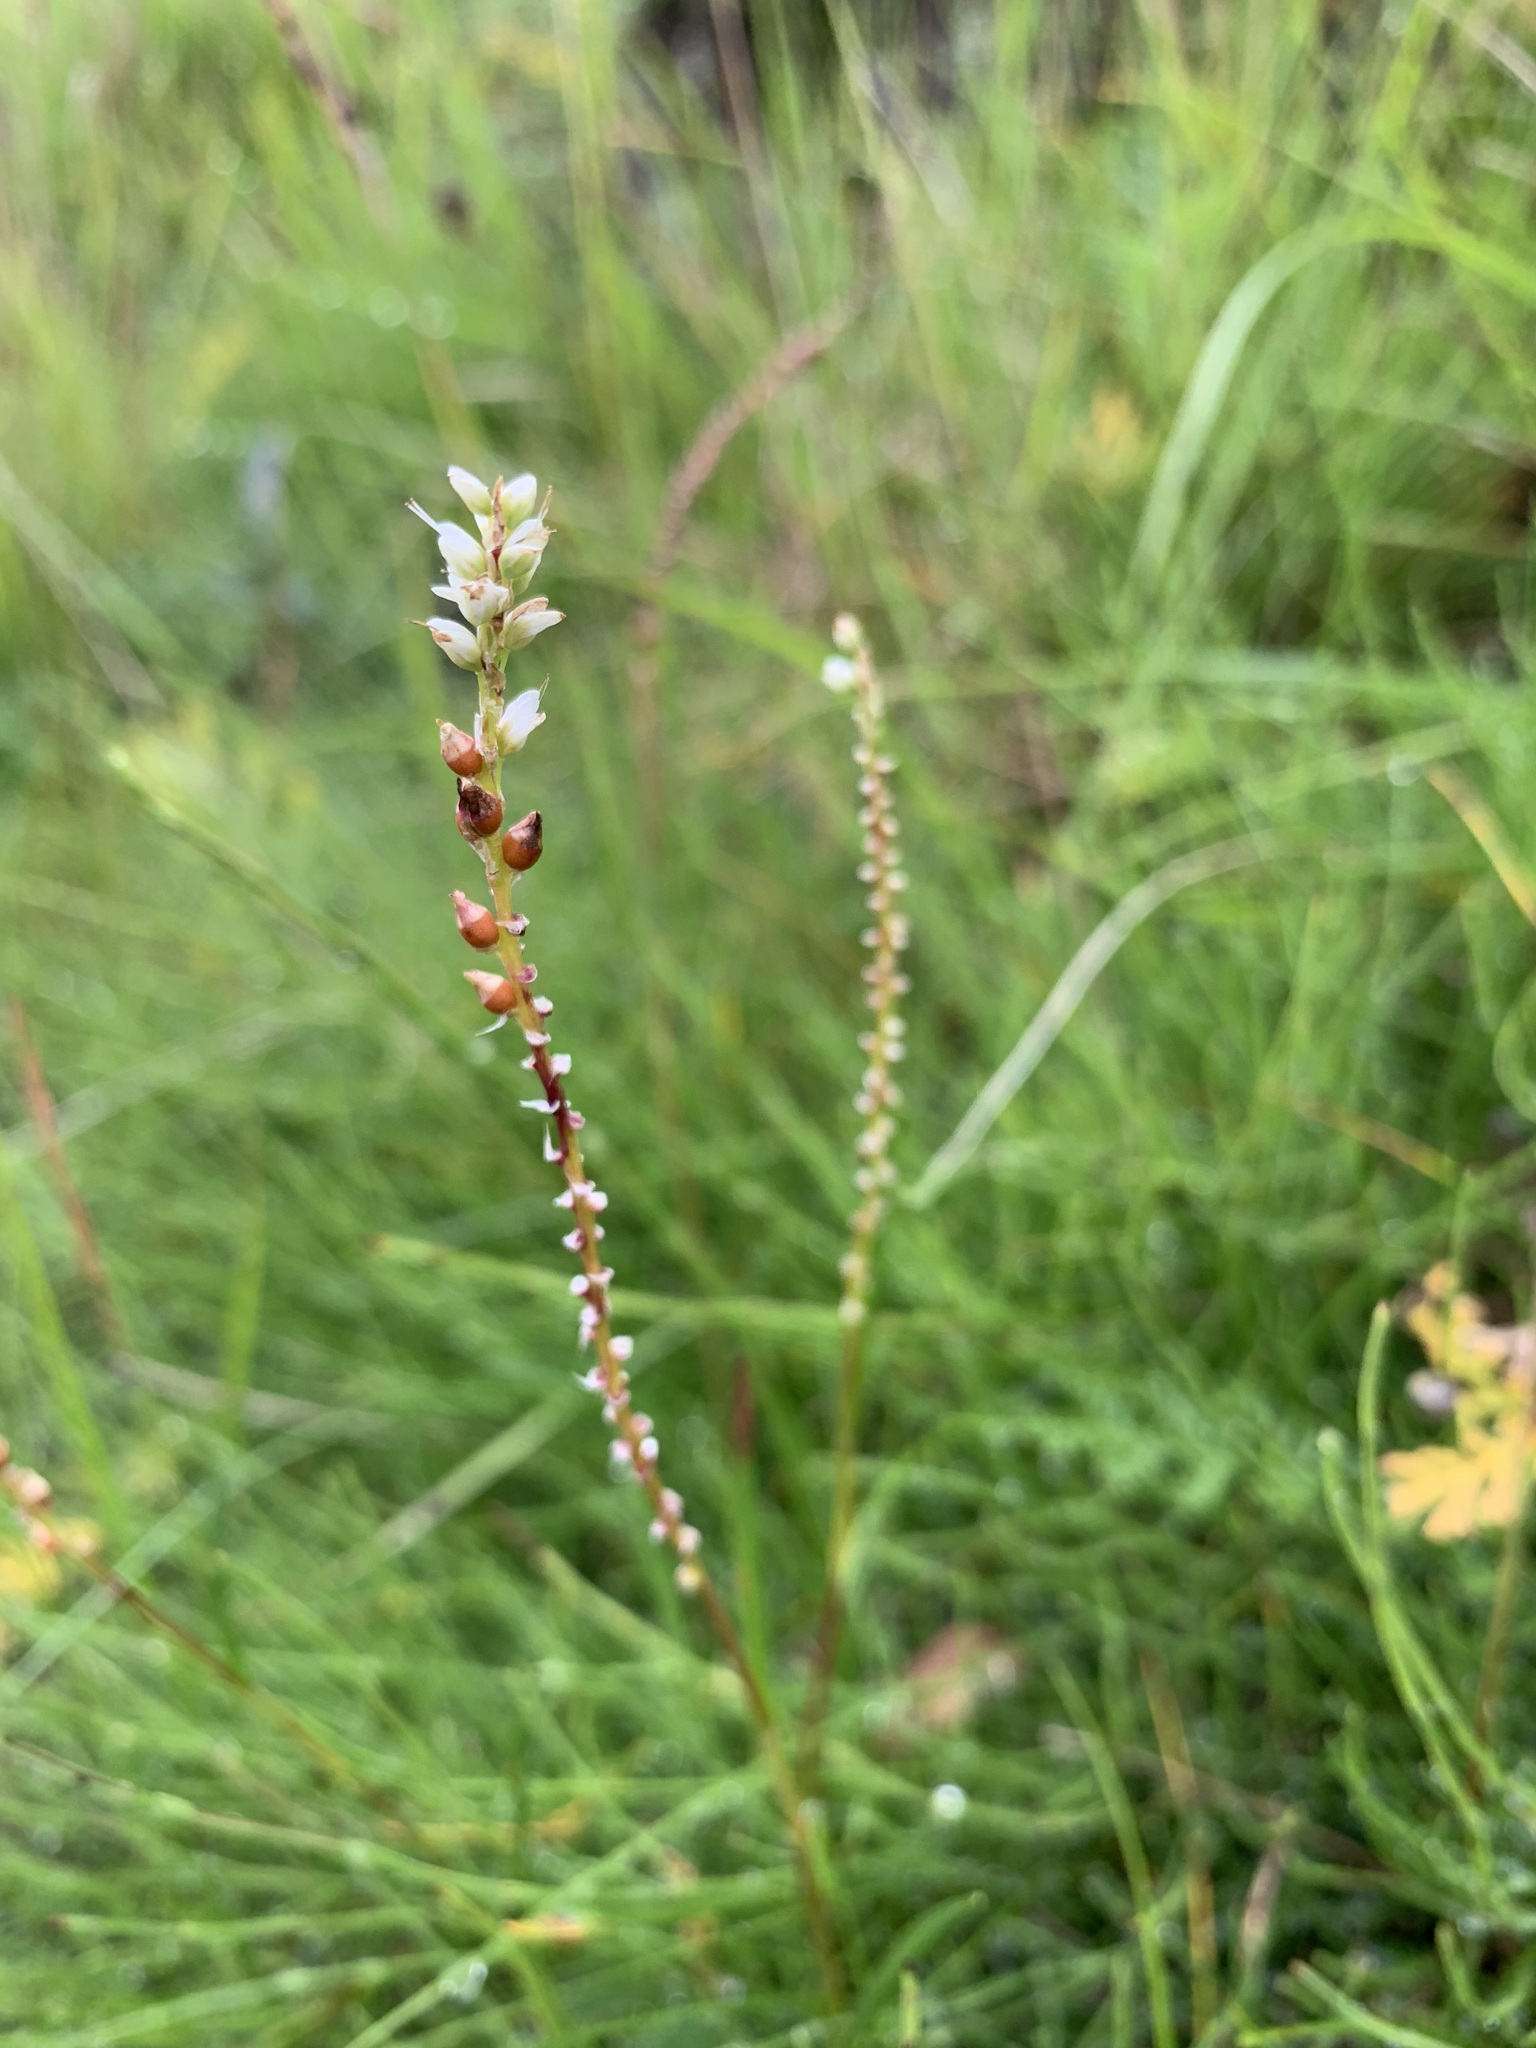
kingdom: Plantae
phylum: Tracheophyta
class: Magnoliopsida
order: Caryophyllales
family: Polygonaceae
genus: Bistorta
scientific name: Bistorta vivipara
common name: Alpine bistort
